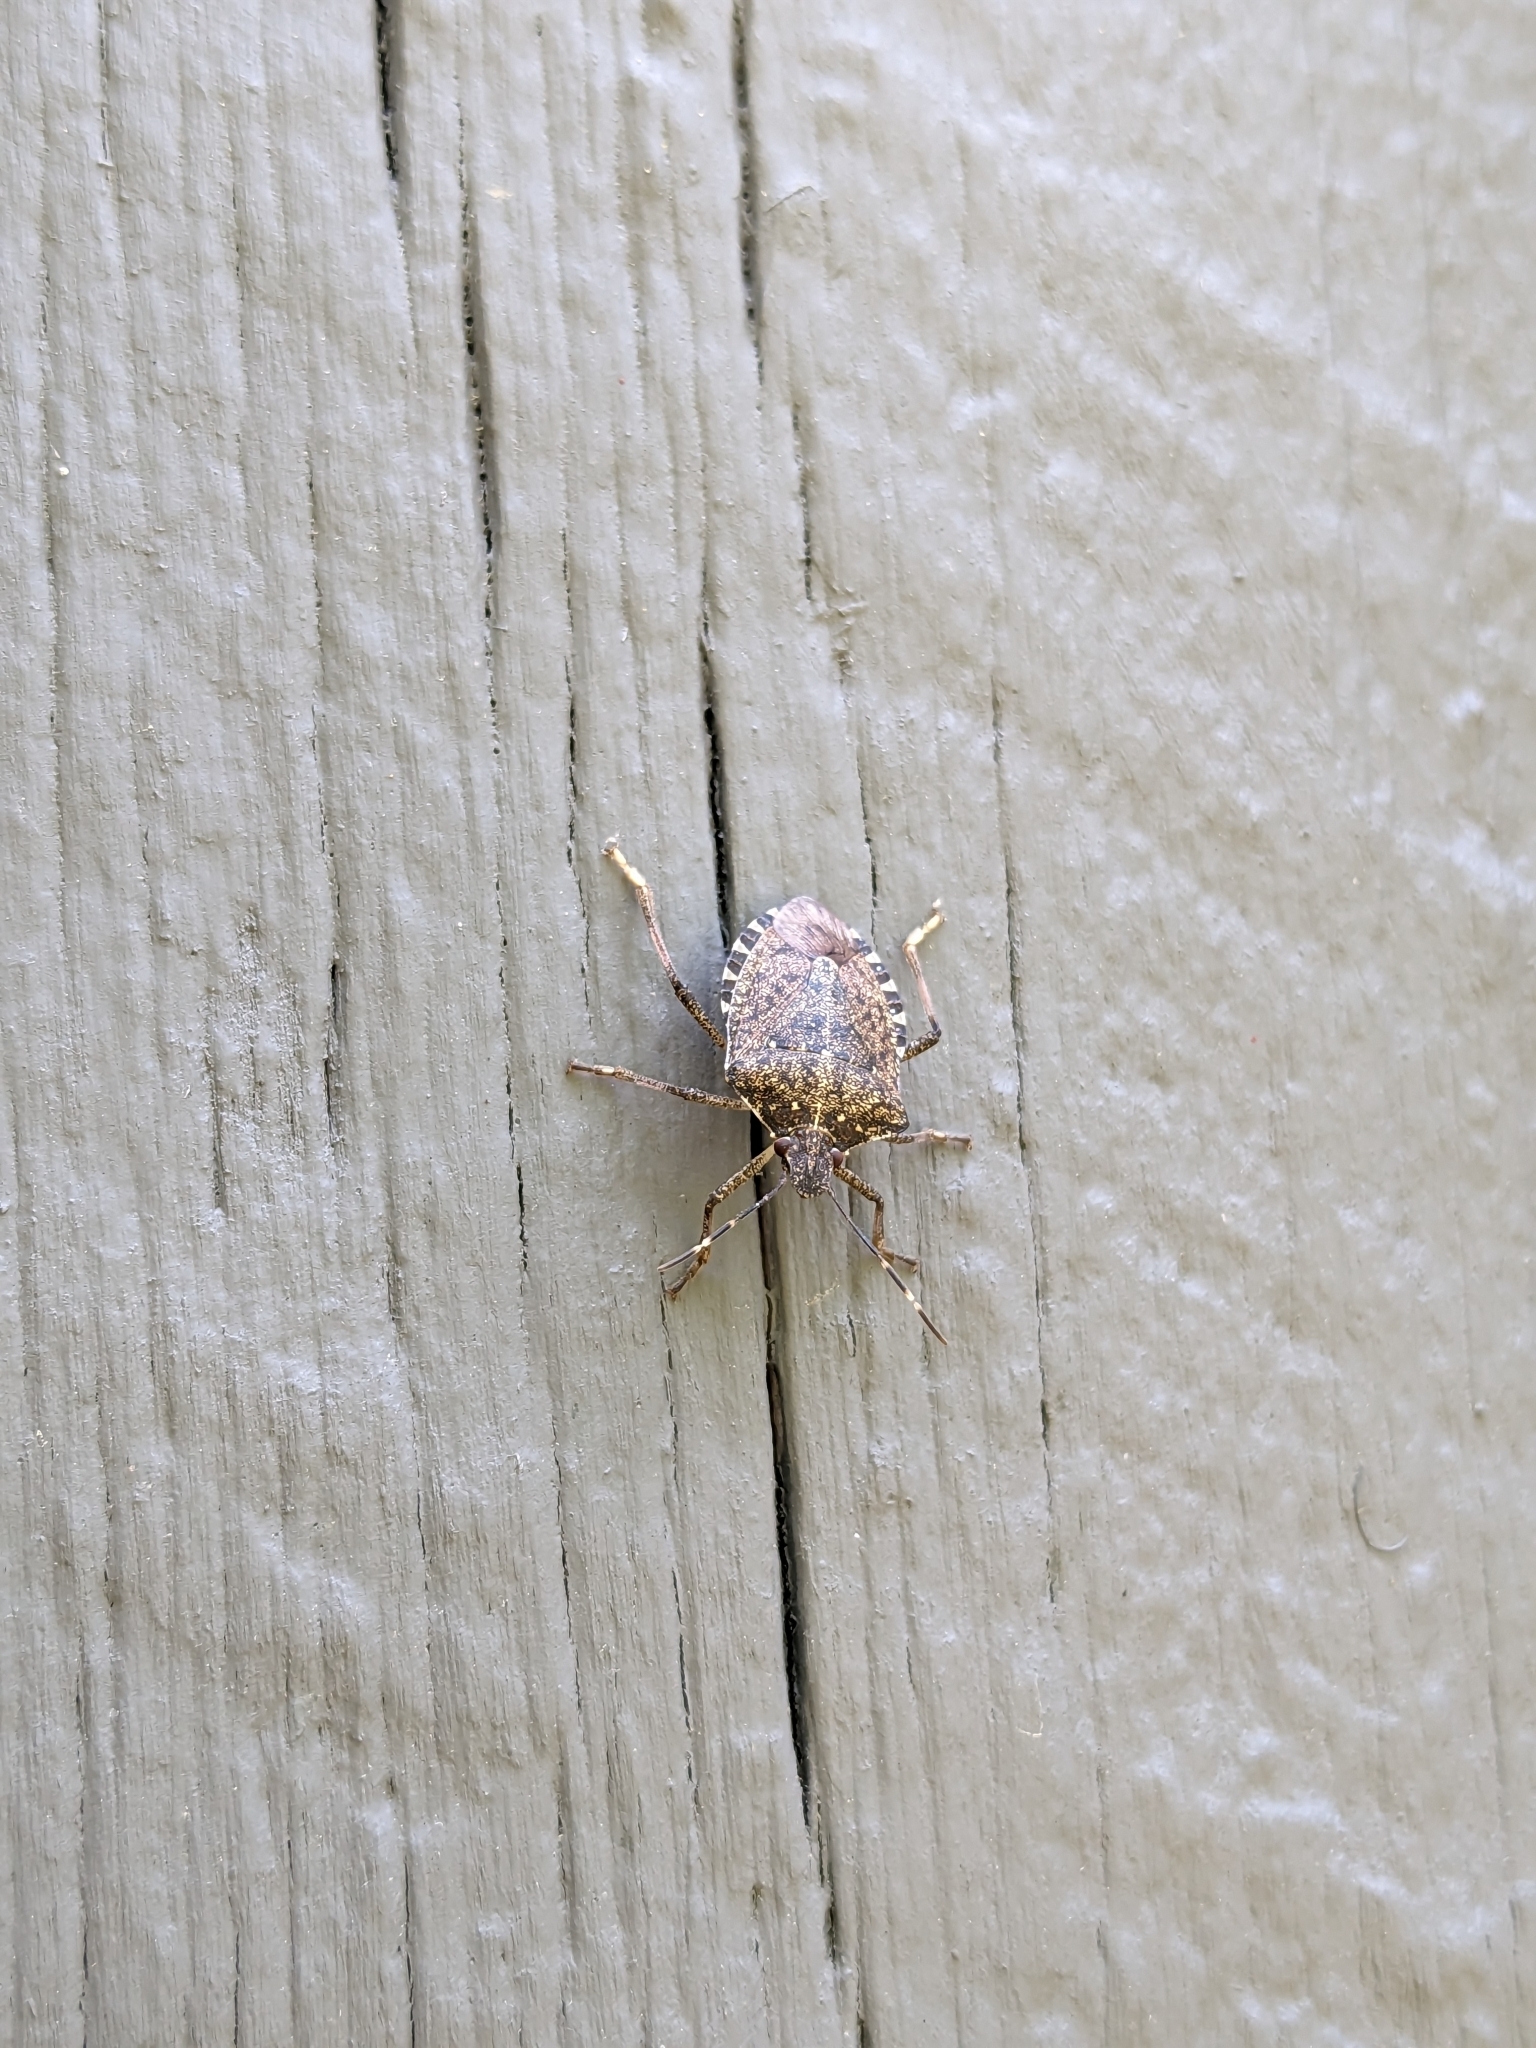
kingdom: Animalia
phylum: Arthropoda
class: Insecta
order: Hemiptera
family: Pentatomidae
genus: Halyomorpha
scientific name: Halyomorpha halys
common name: Brown marmorated stink bug
